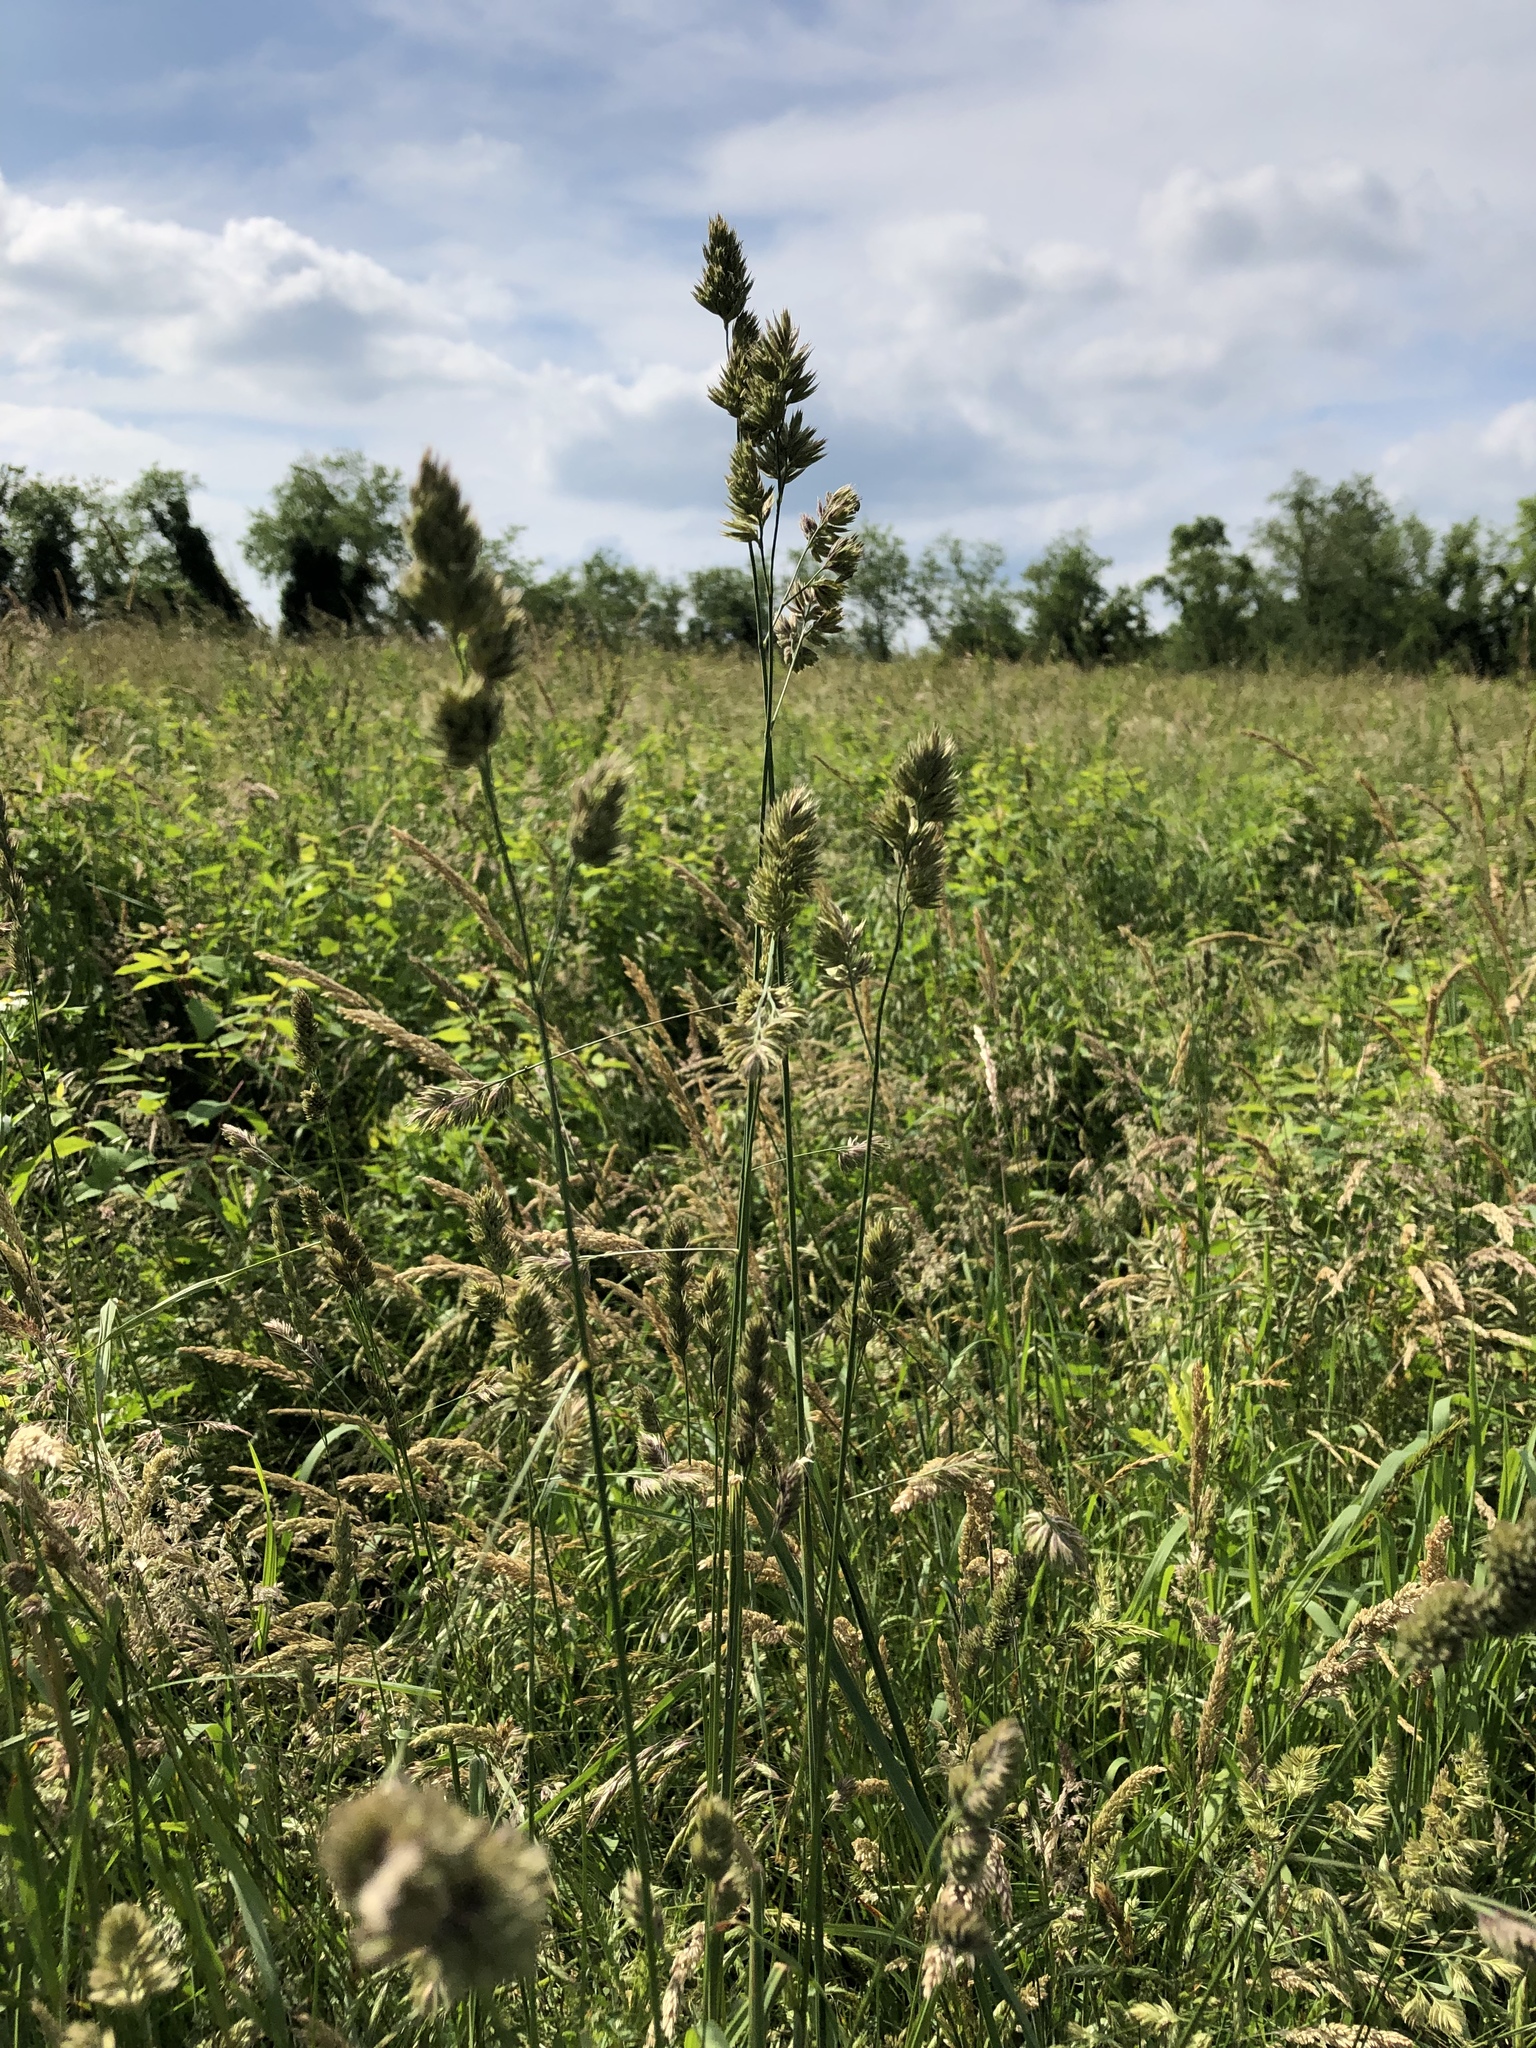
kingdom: Plantae
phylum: Tracheophyta
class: Liliopsida
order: Poales
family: Poaceae
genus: Dactylis
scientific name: Dactylis glomerata
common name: Orchardgrass
